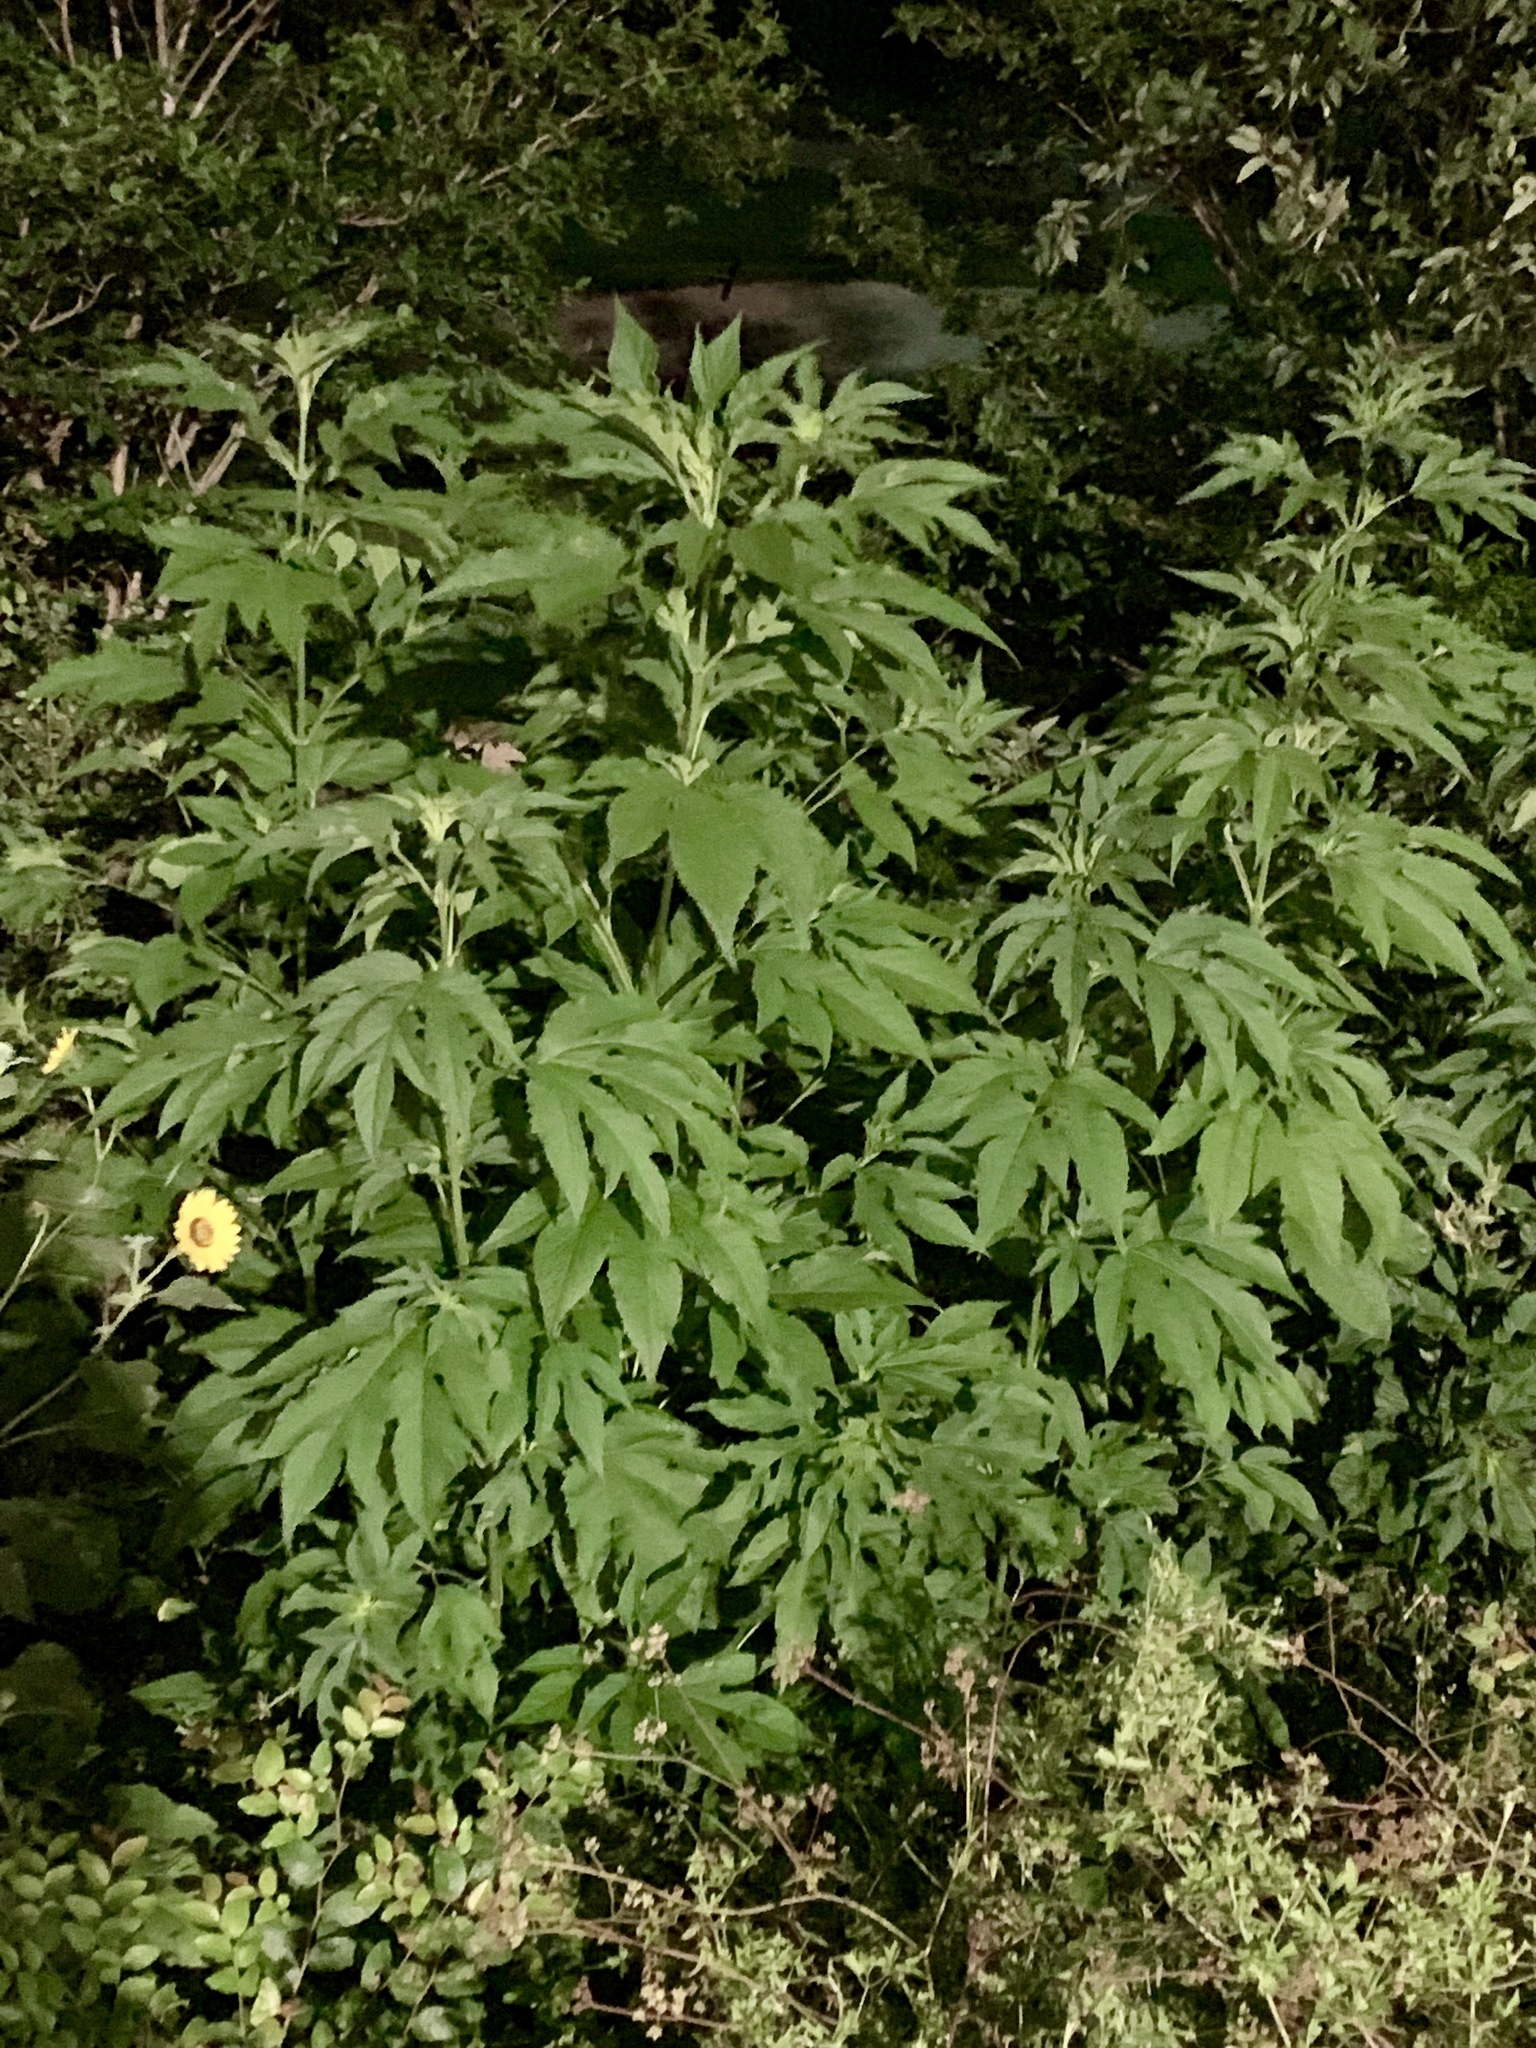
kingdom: Plantae
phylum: Tracheophyta
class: Magnoliopsida
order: Asterales
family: Asteraceae
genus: Ambrosia
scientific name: Ambrosia trifida
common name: Giant ragweed
